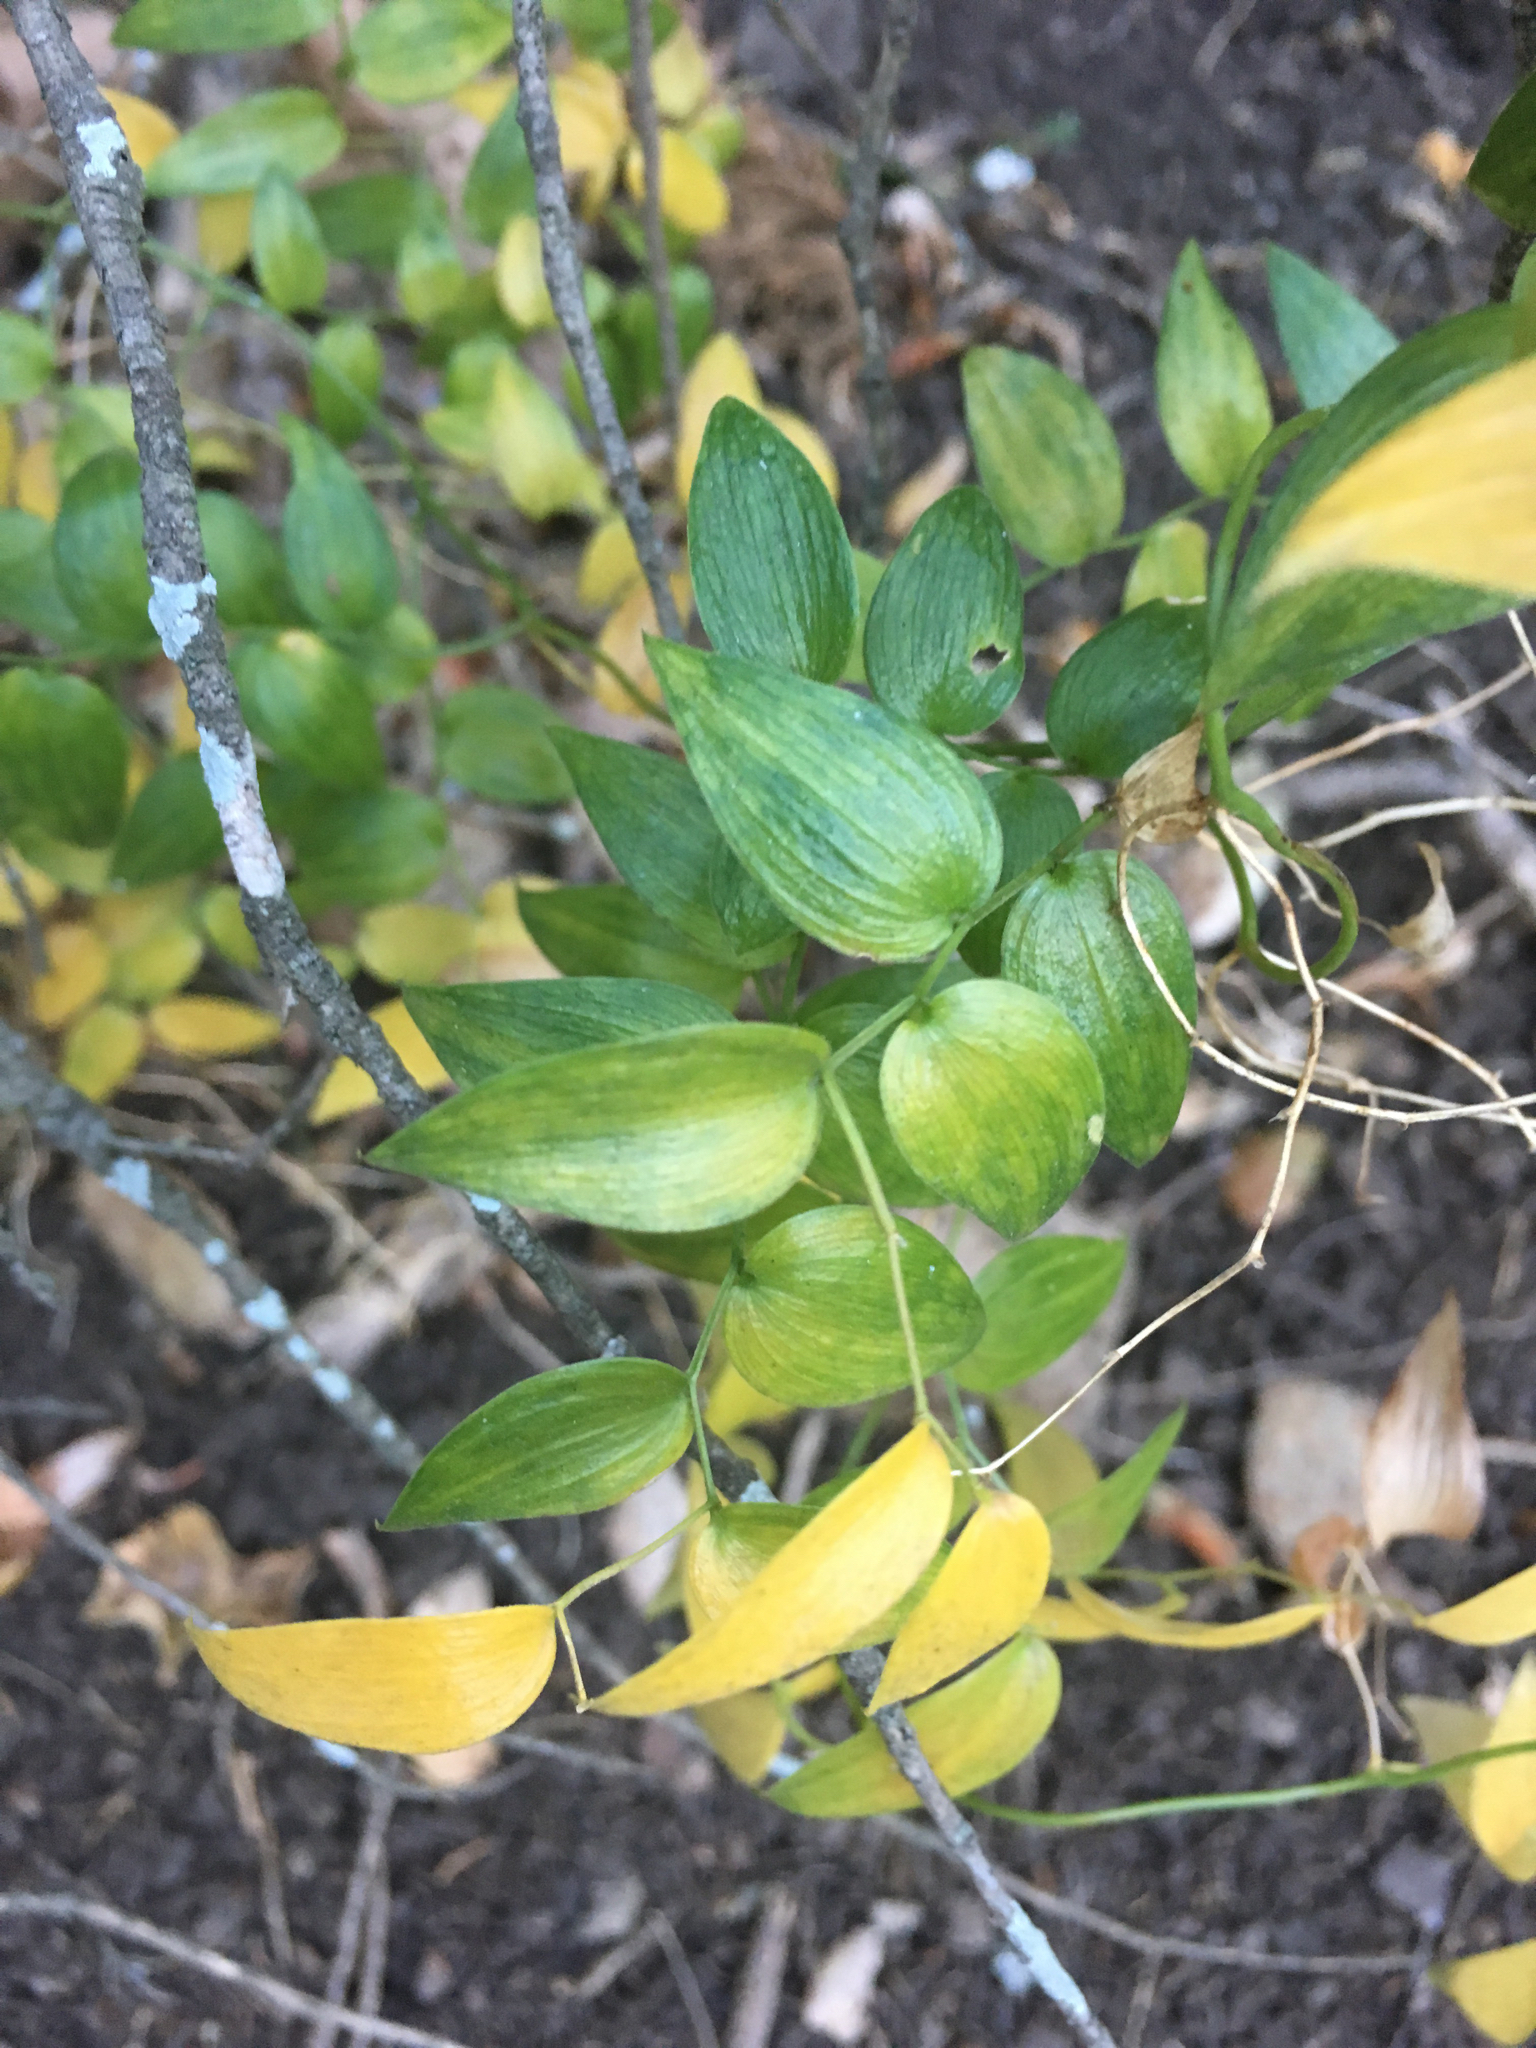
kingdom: Plantae
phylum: Tracheophyta
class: Liliopsida
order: Asparagales
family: Asparagaceae
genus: Asparagus
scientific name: Asparagus asparagoides
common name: African asparagus fern
